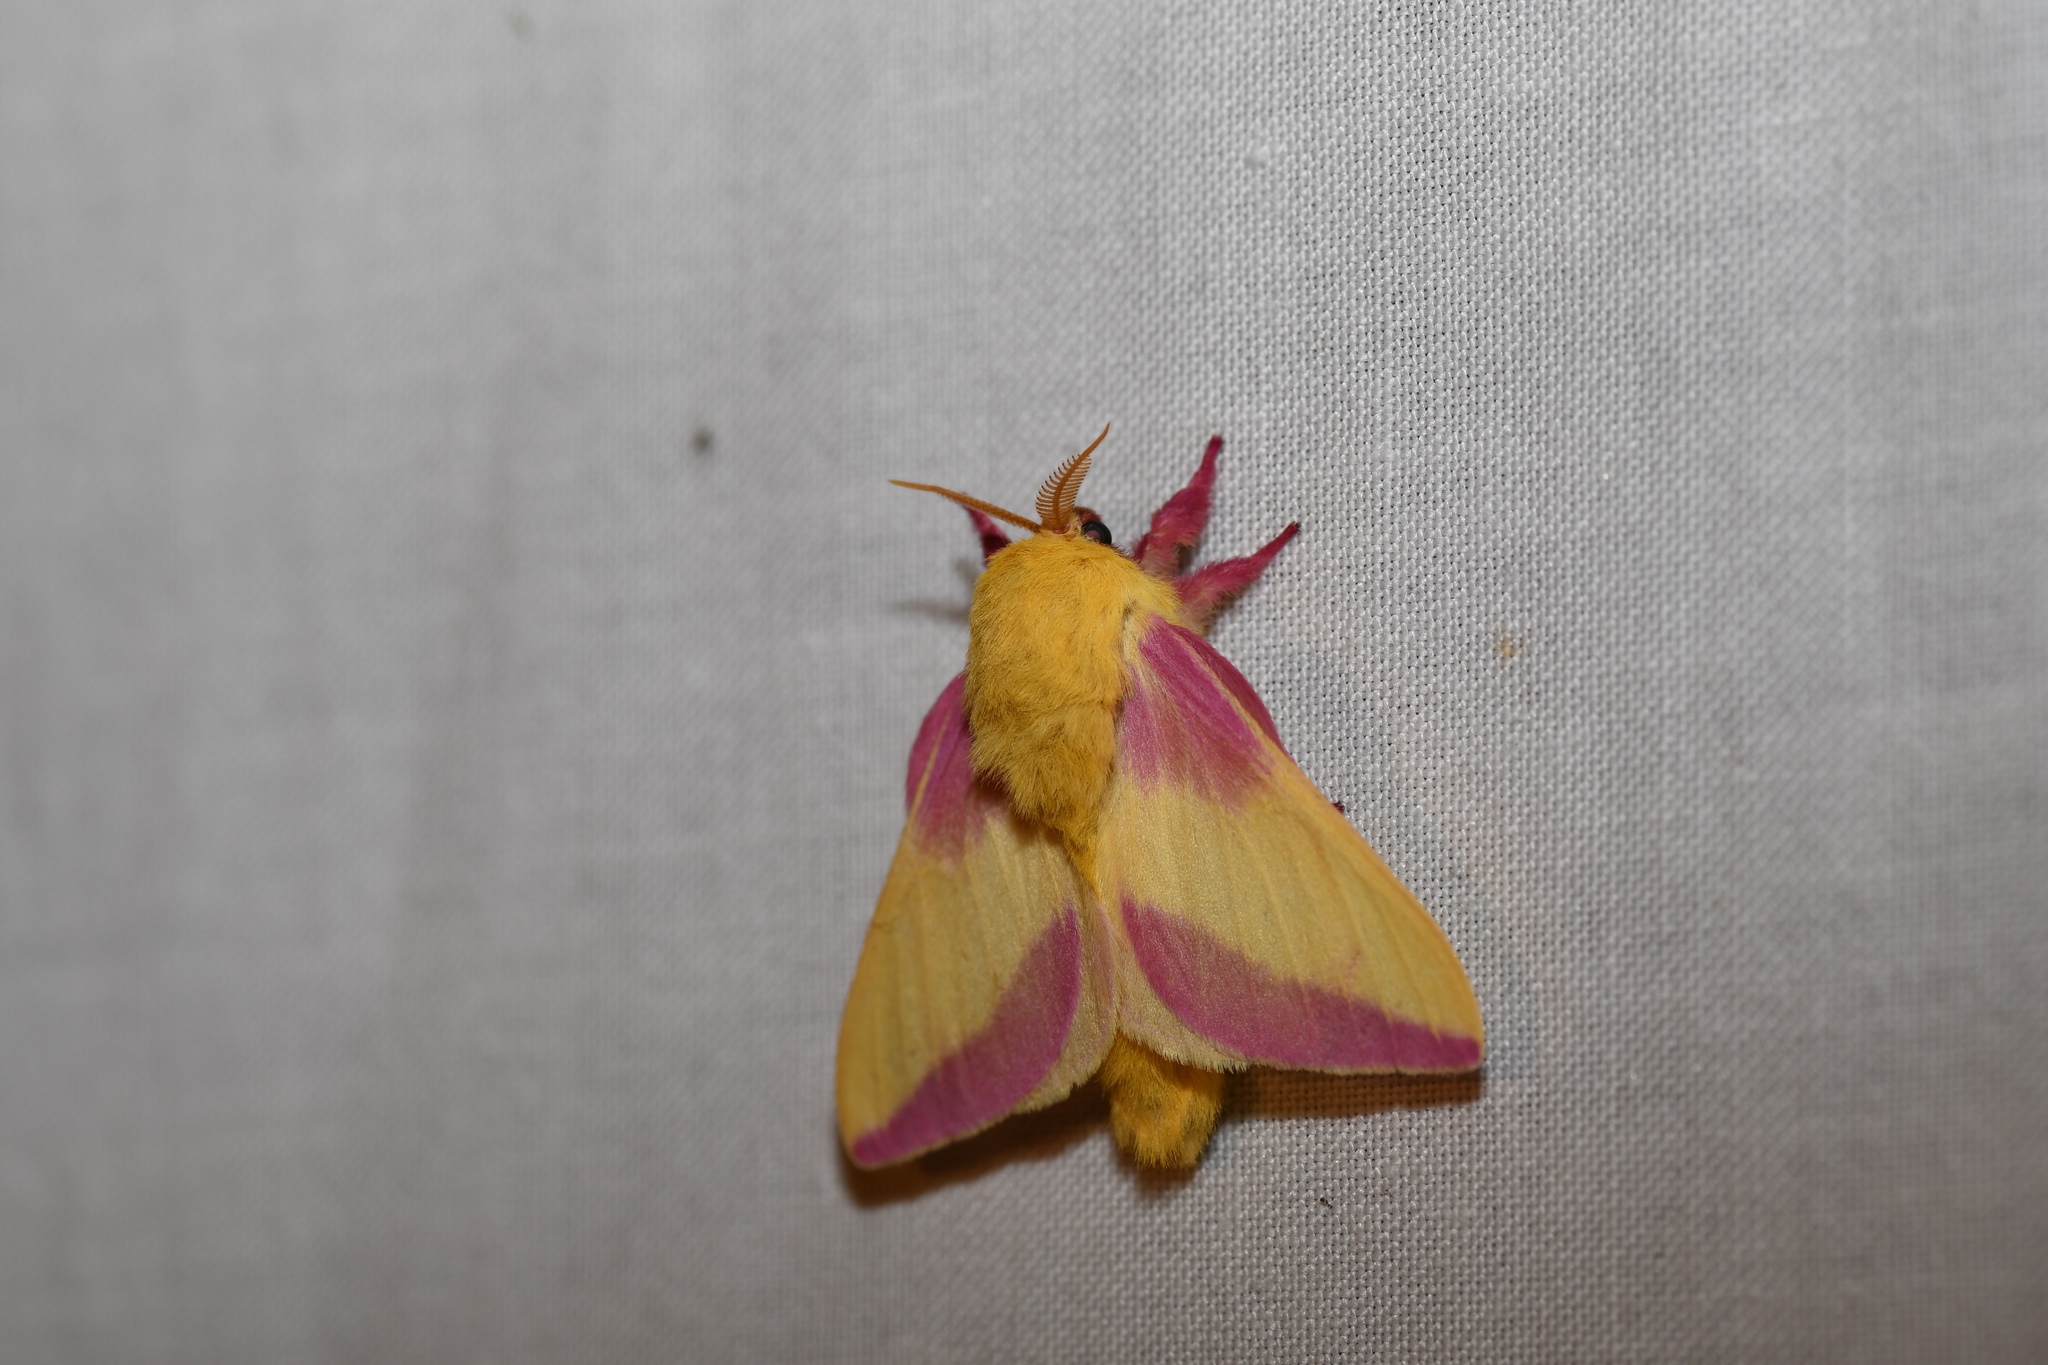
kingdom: Animalia
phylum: Arthropoda
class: Insecta
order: Lepidoptera
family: Saturniidae
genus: Dryocampa
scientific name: Dryocampa rubicunda
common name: Rosy maple moth
